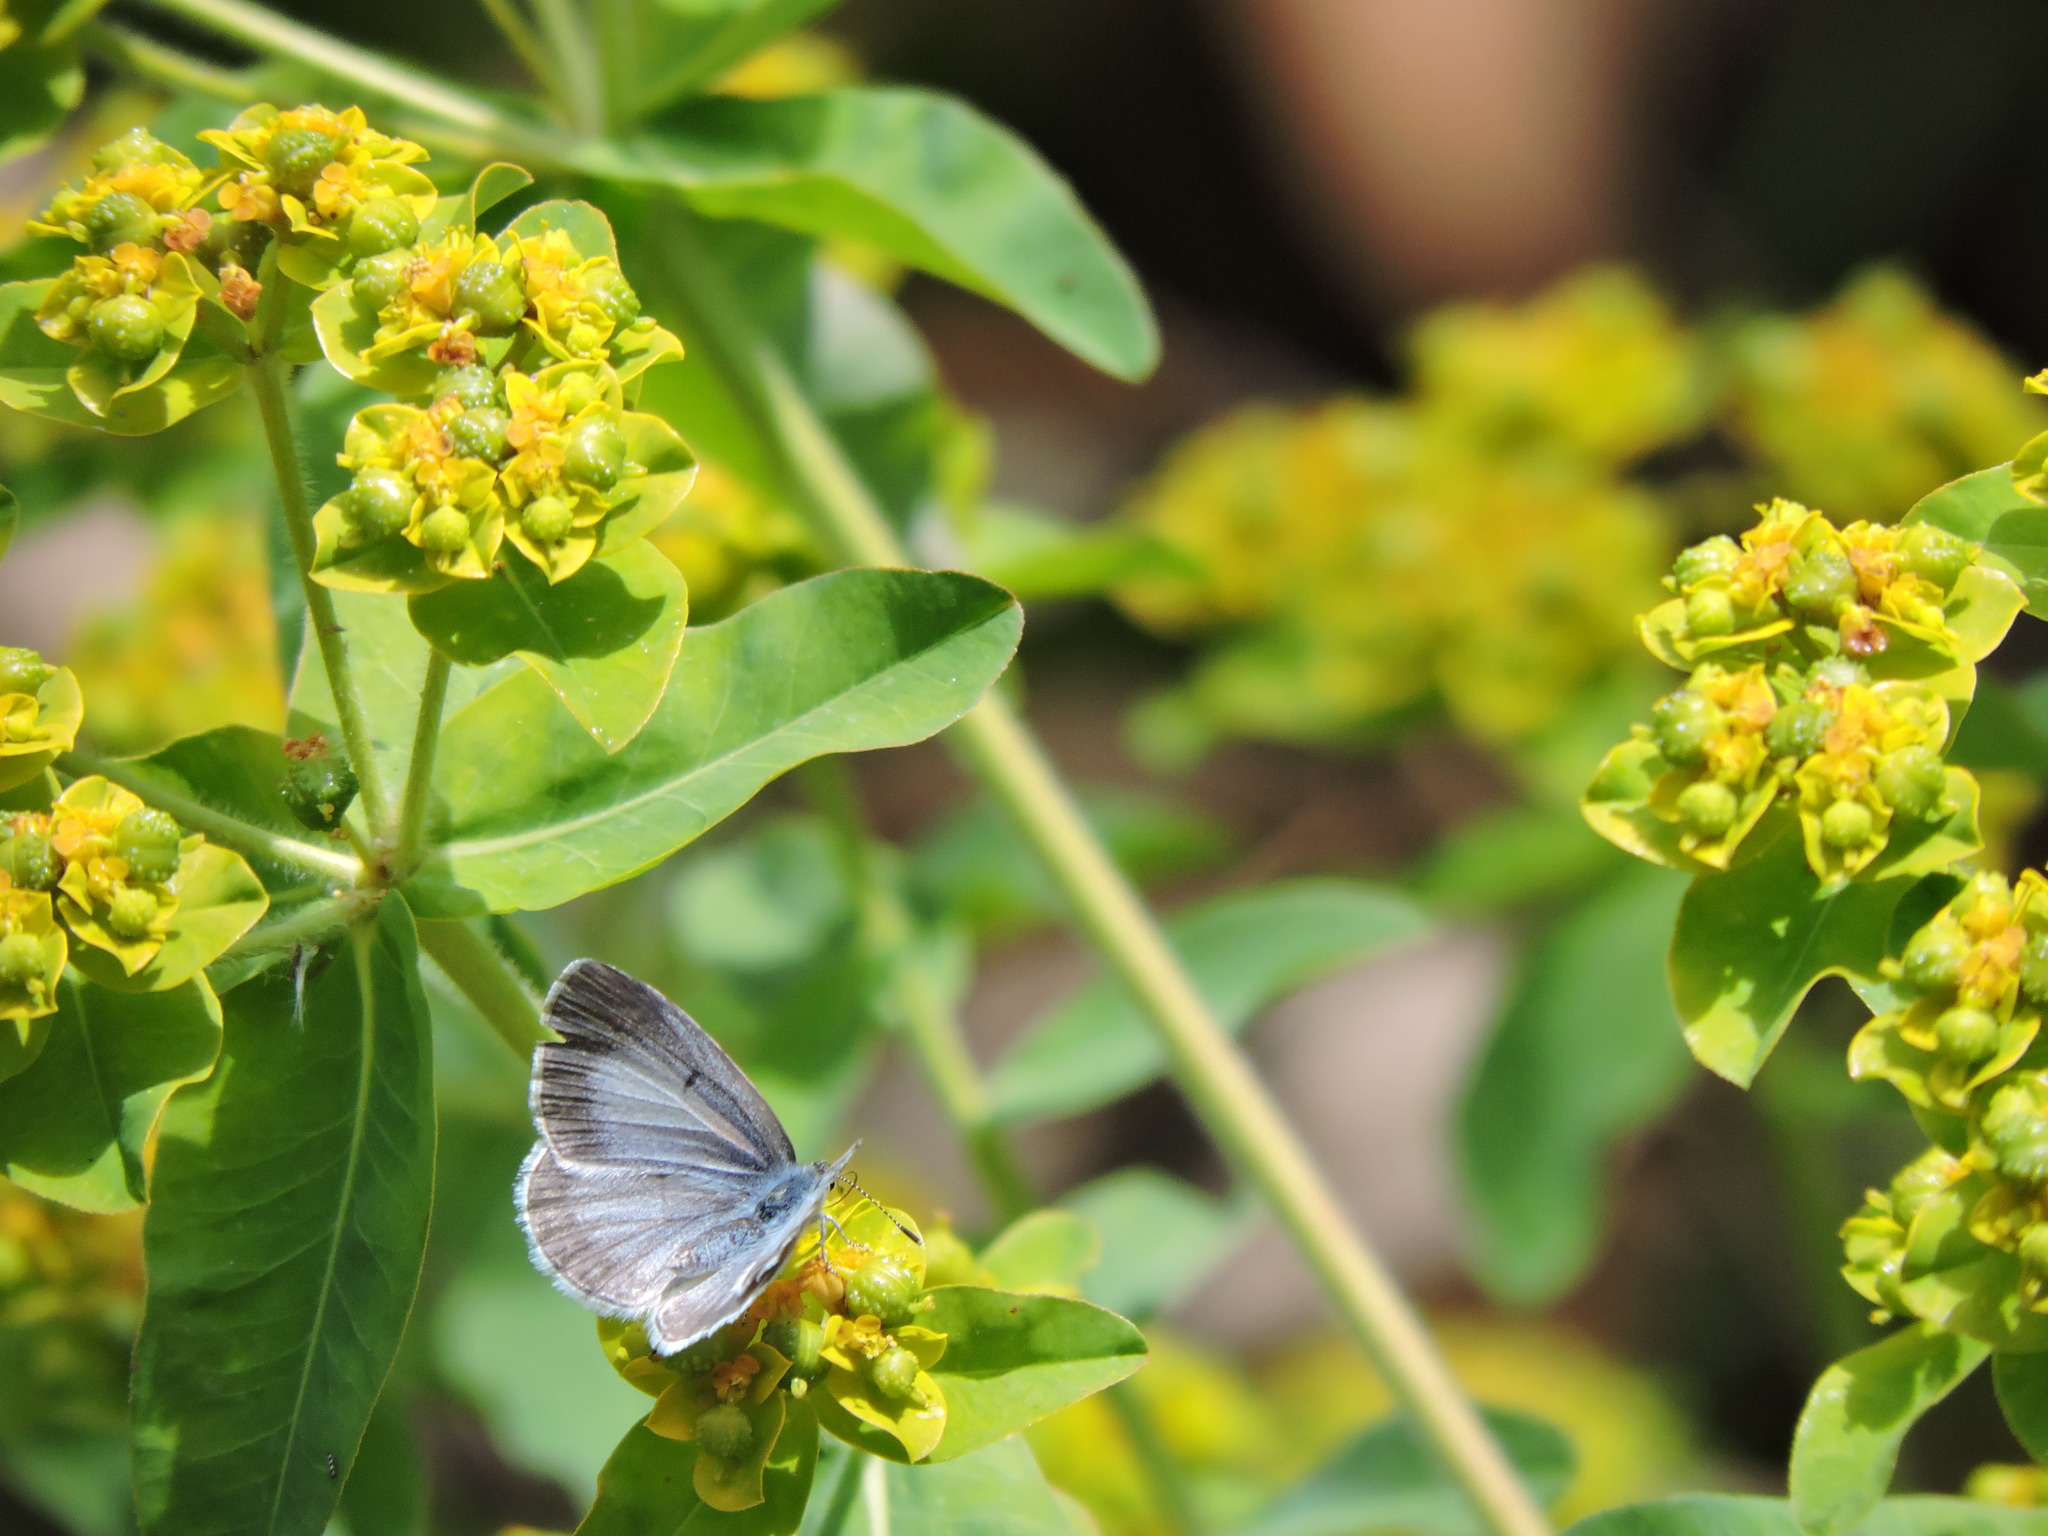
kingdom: Animalia
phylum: Arthropoda
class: Insecta
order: Lepidoptera
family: Lycaenidae
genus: Celastrina
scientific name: Celastrina ladon
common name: Spring azure
